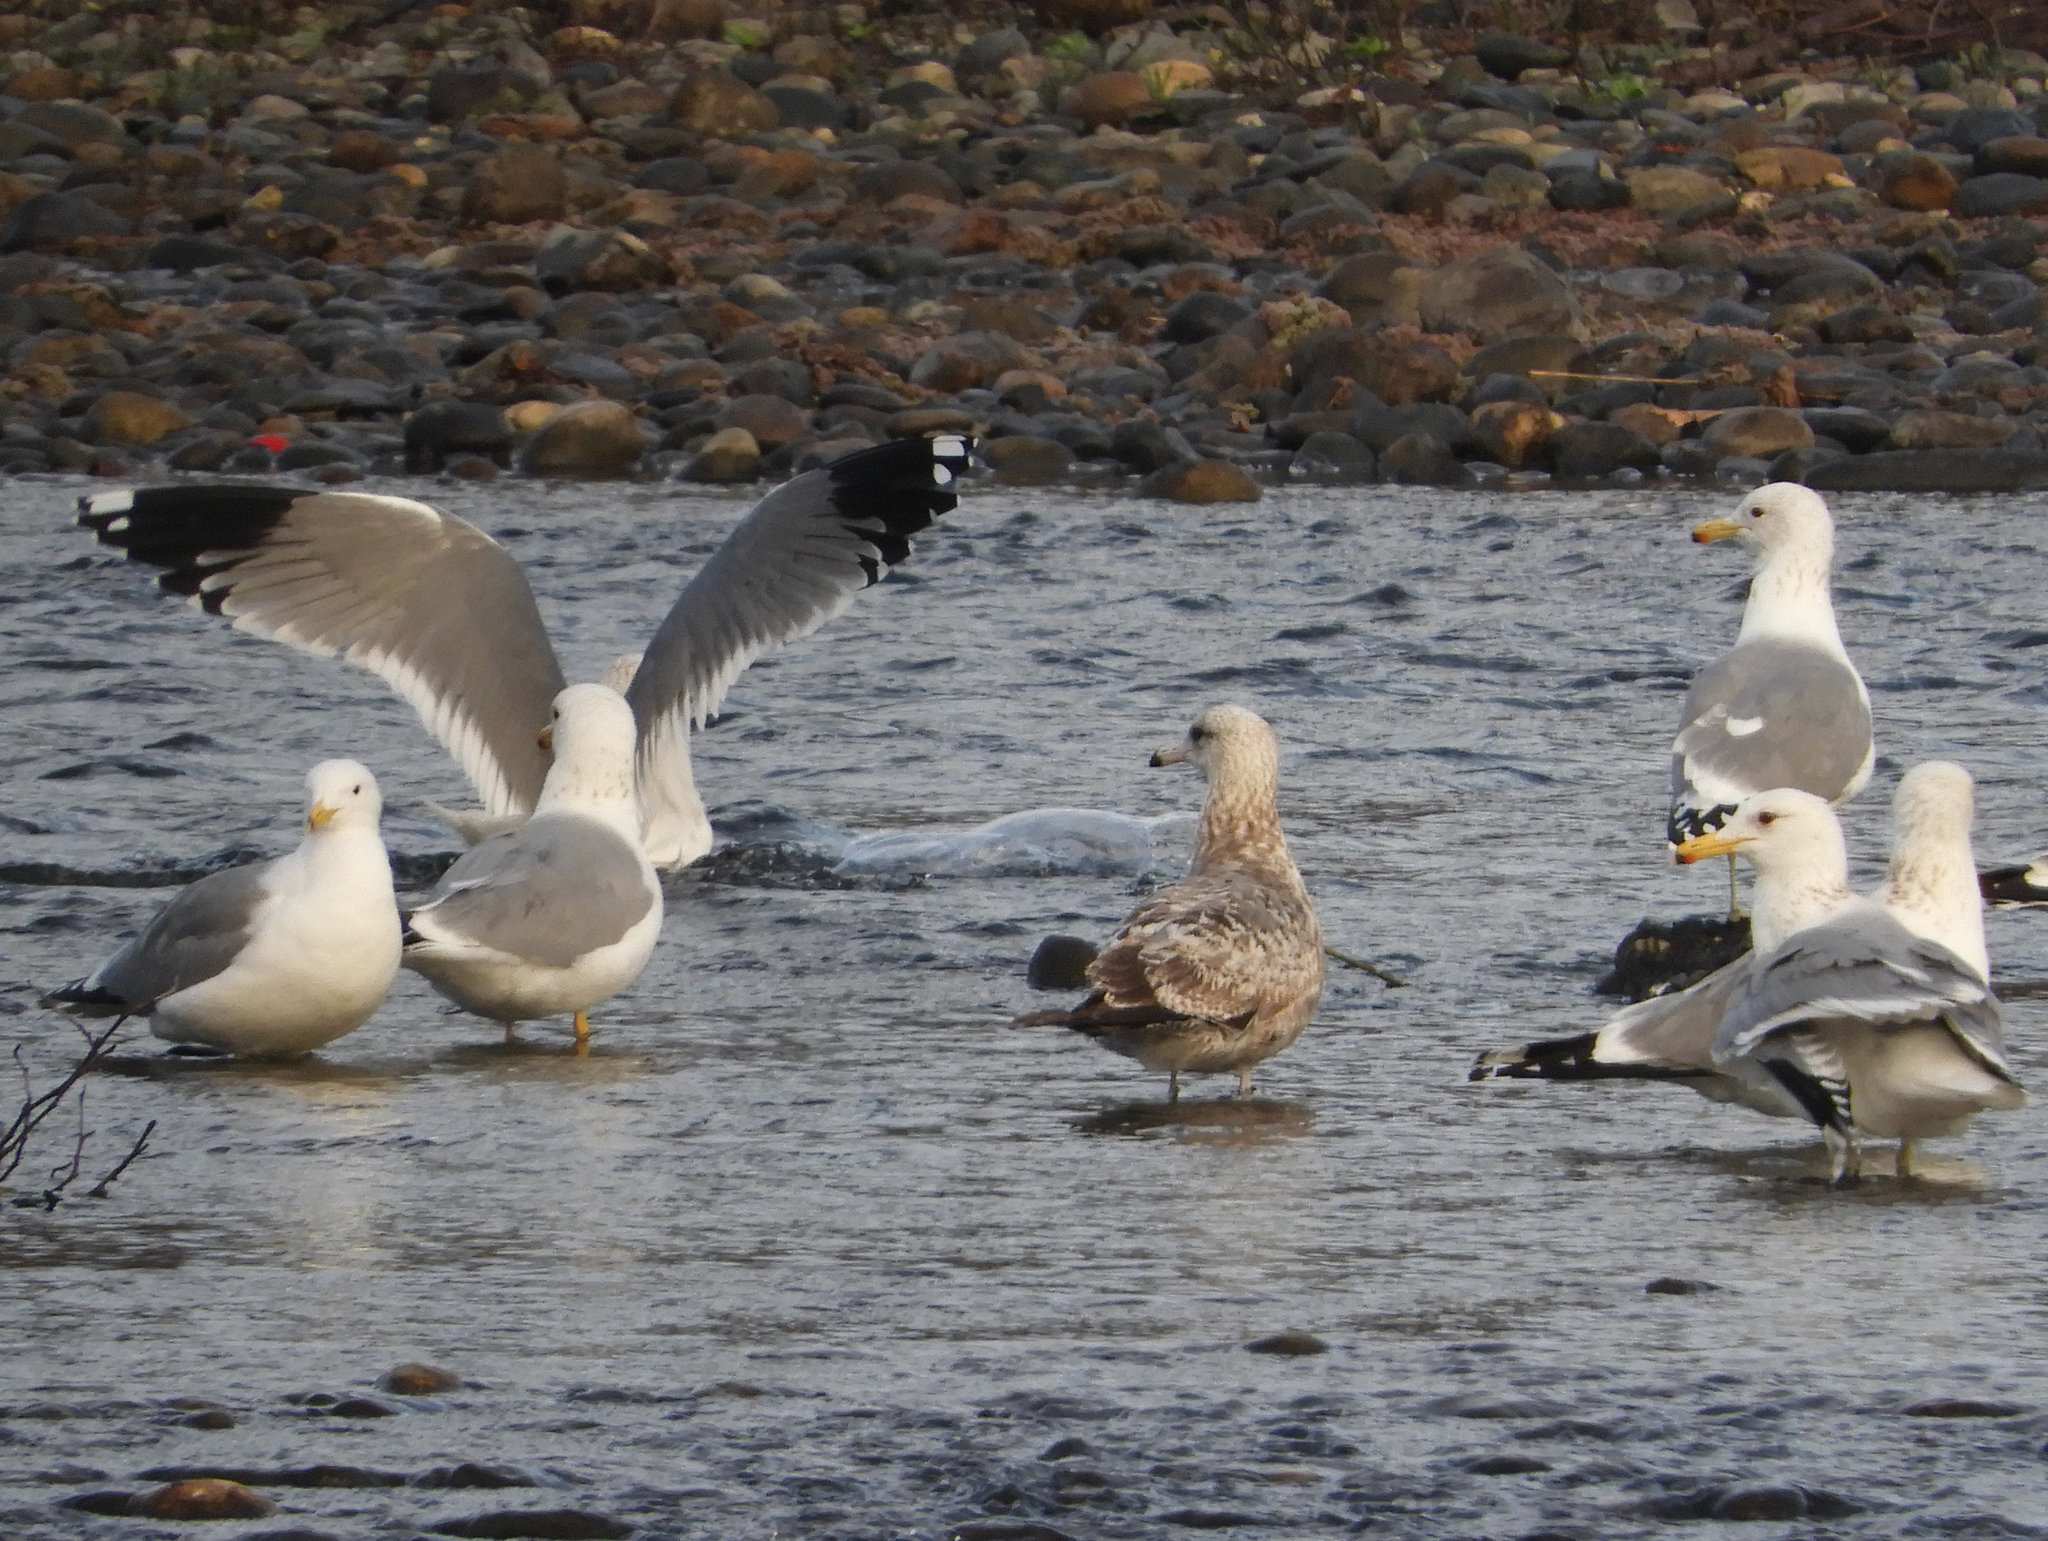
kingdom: Animalia
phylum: Chordata
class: Aves
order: Charadriiformes
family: Laridae
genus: Larus
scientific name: Larus californicus
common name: California gull
